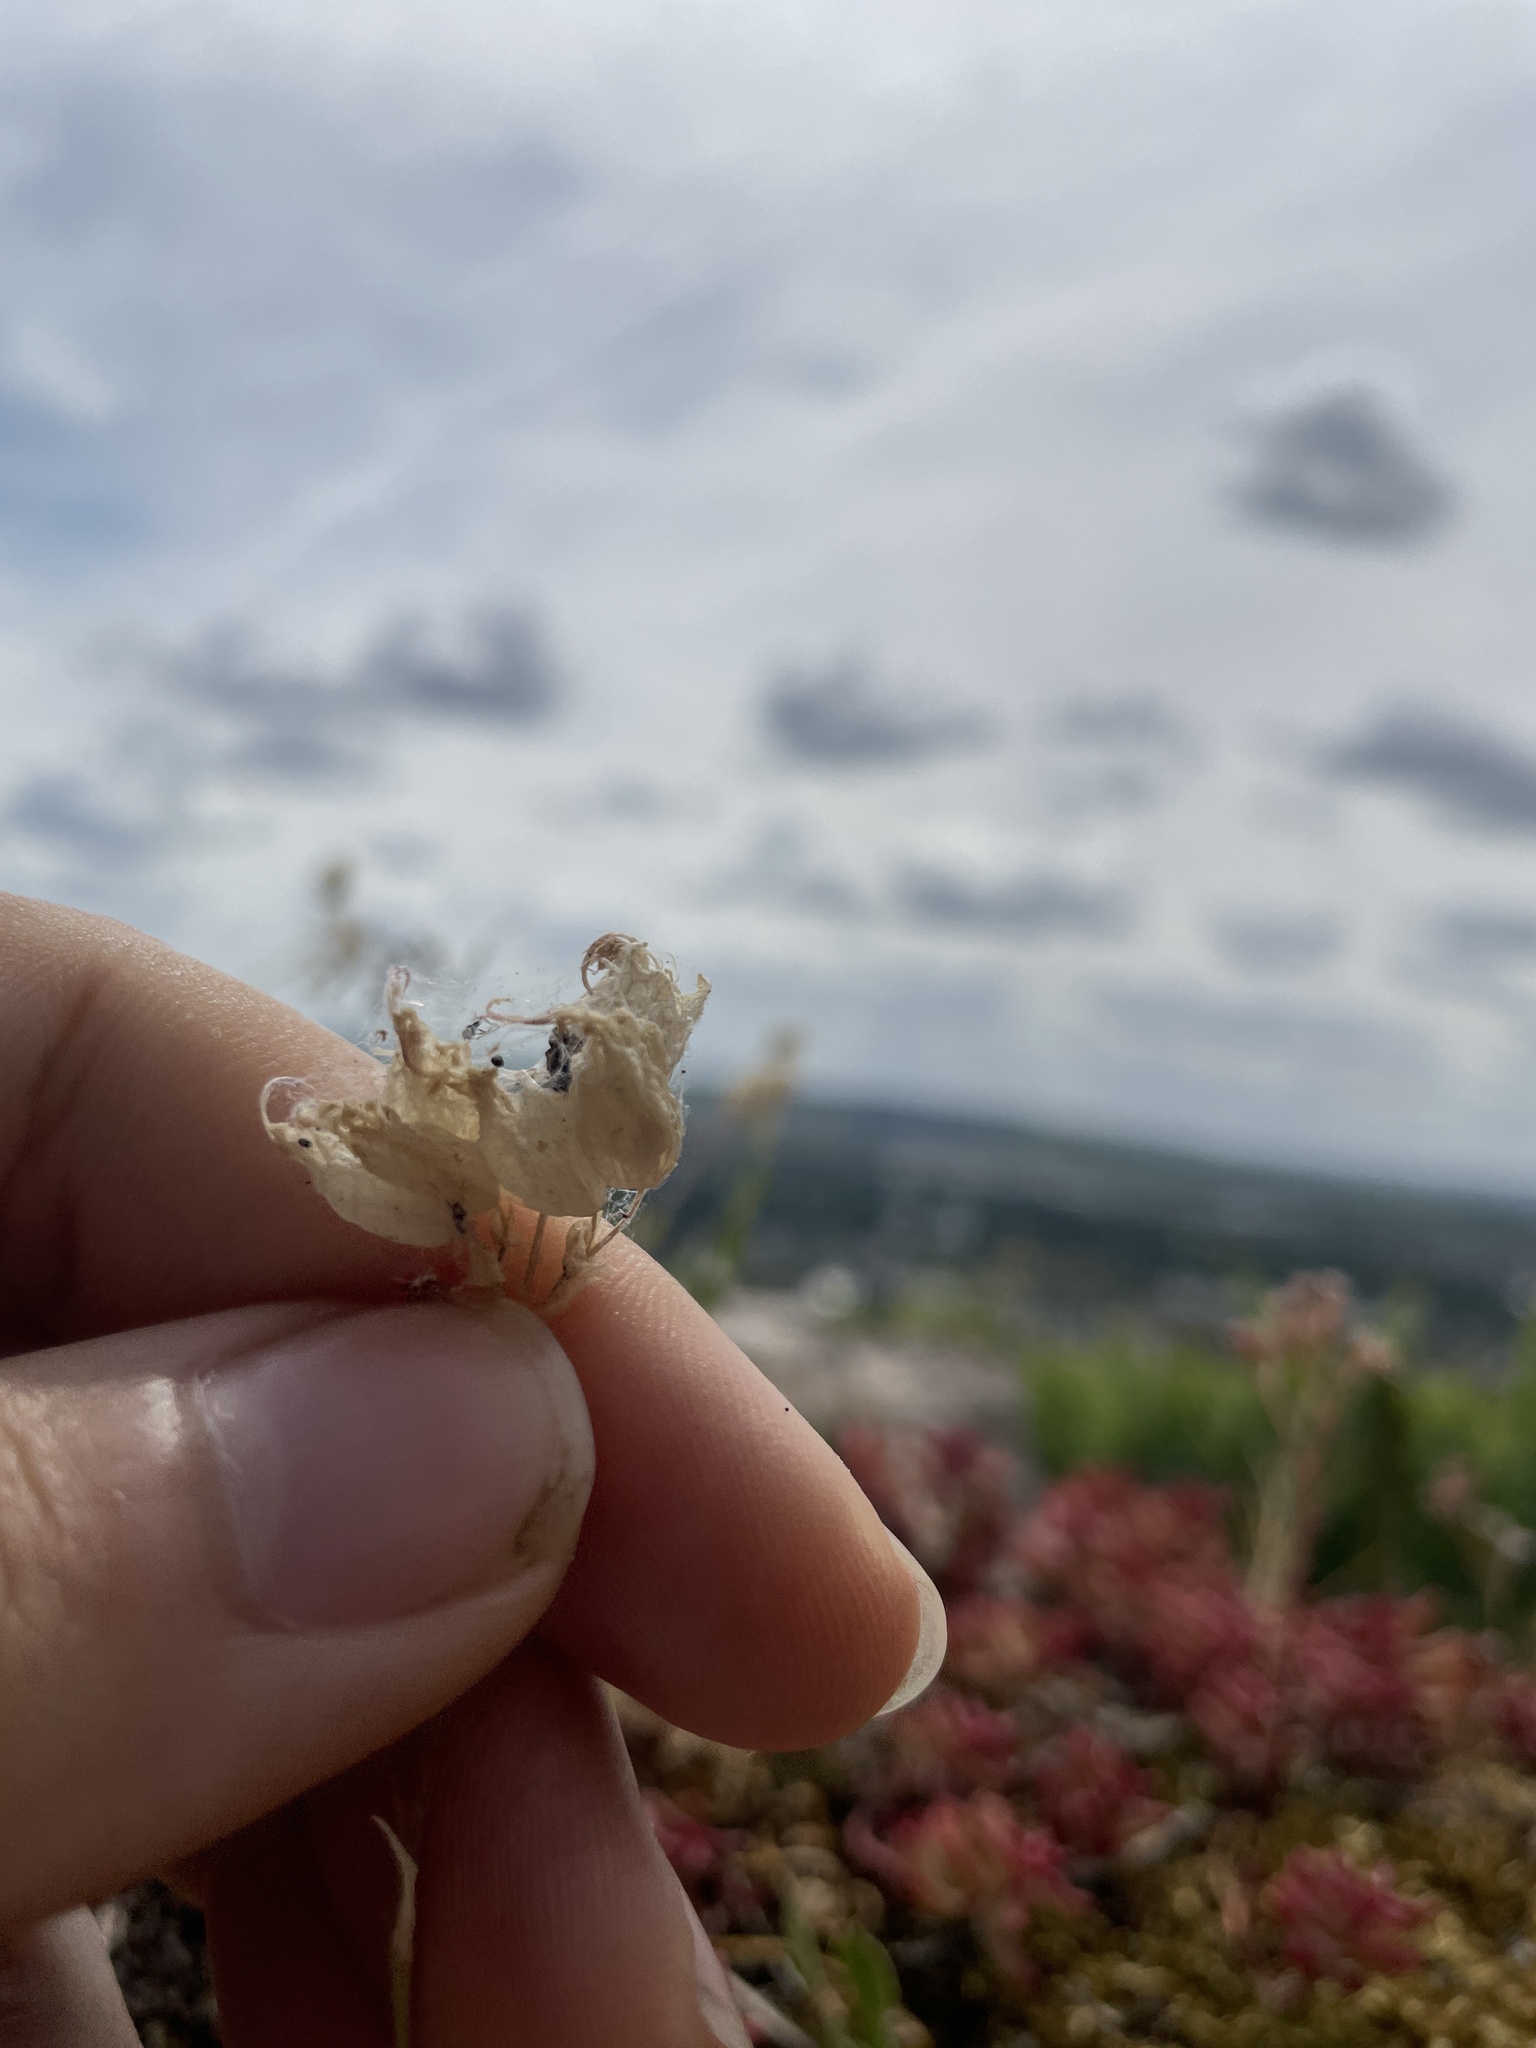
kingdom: Plantae
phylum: Tracheophyta
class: Magnoliopsida
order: Caryophyllales
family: Caryophyllaceae
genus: Silene
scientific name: Silene vulgaris
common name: Bladder campion
